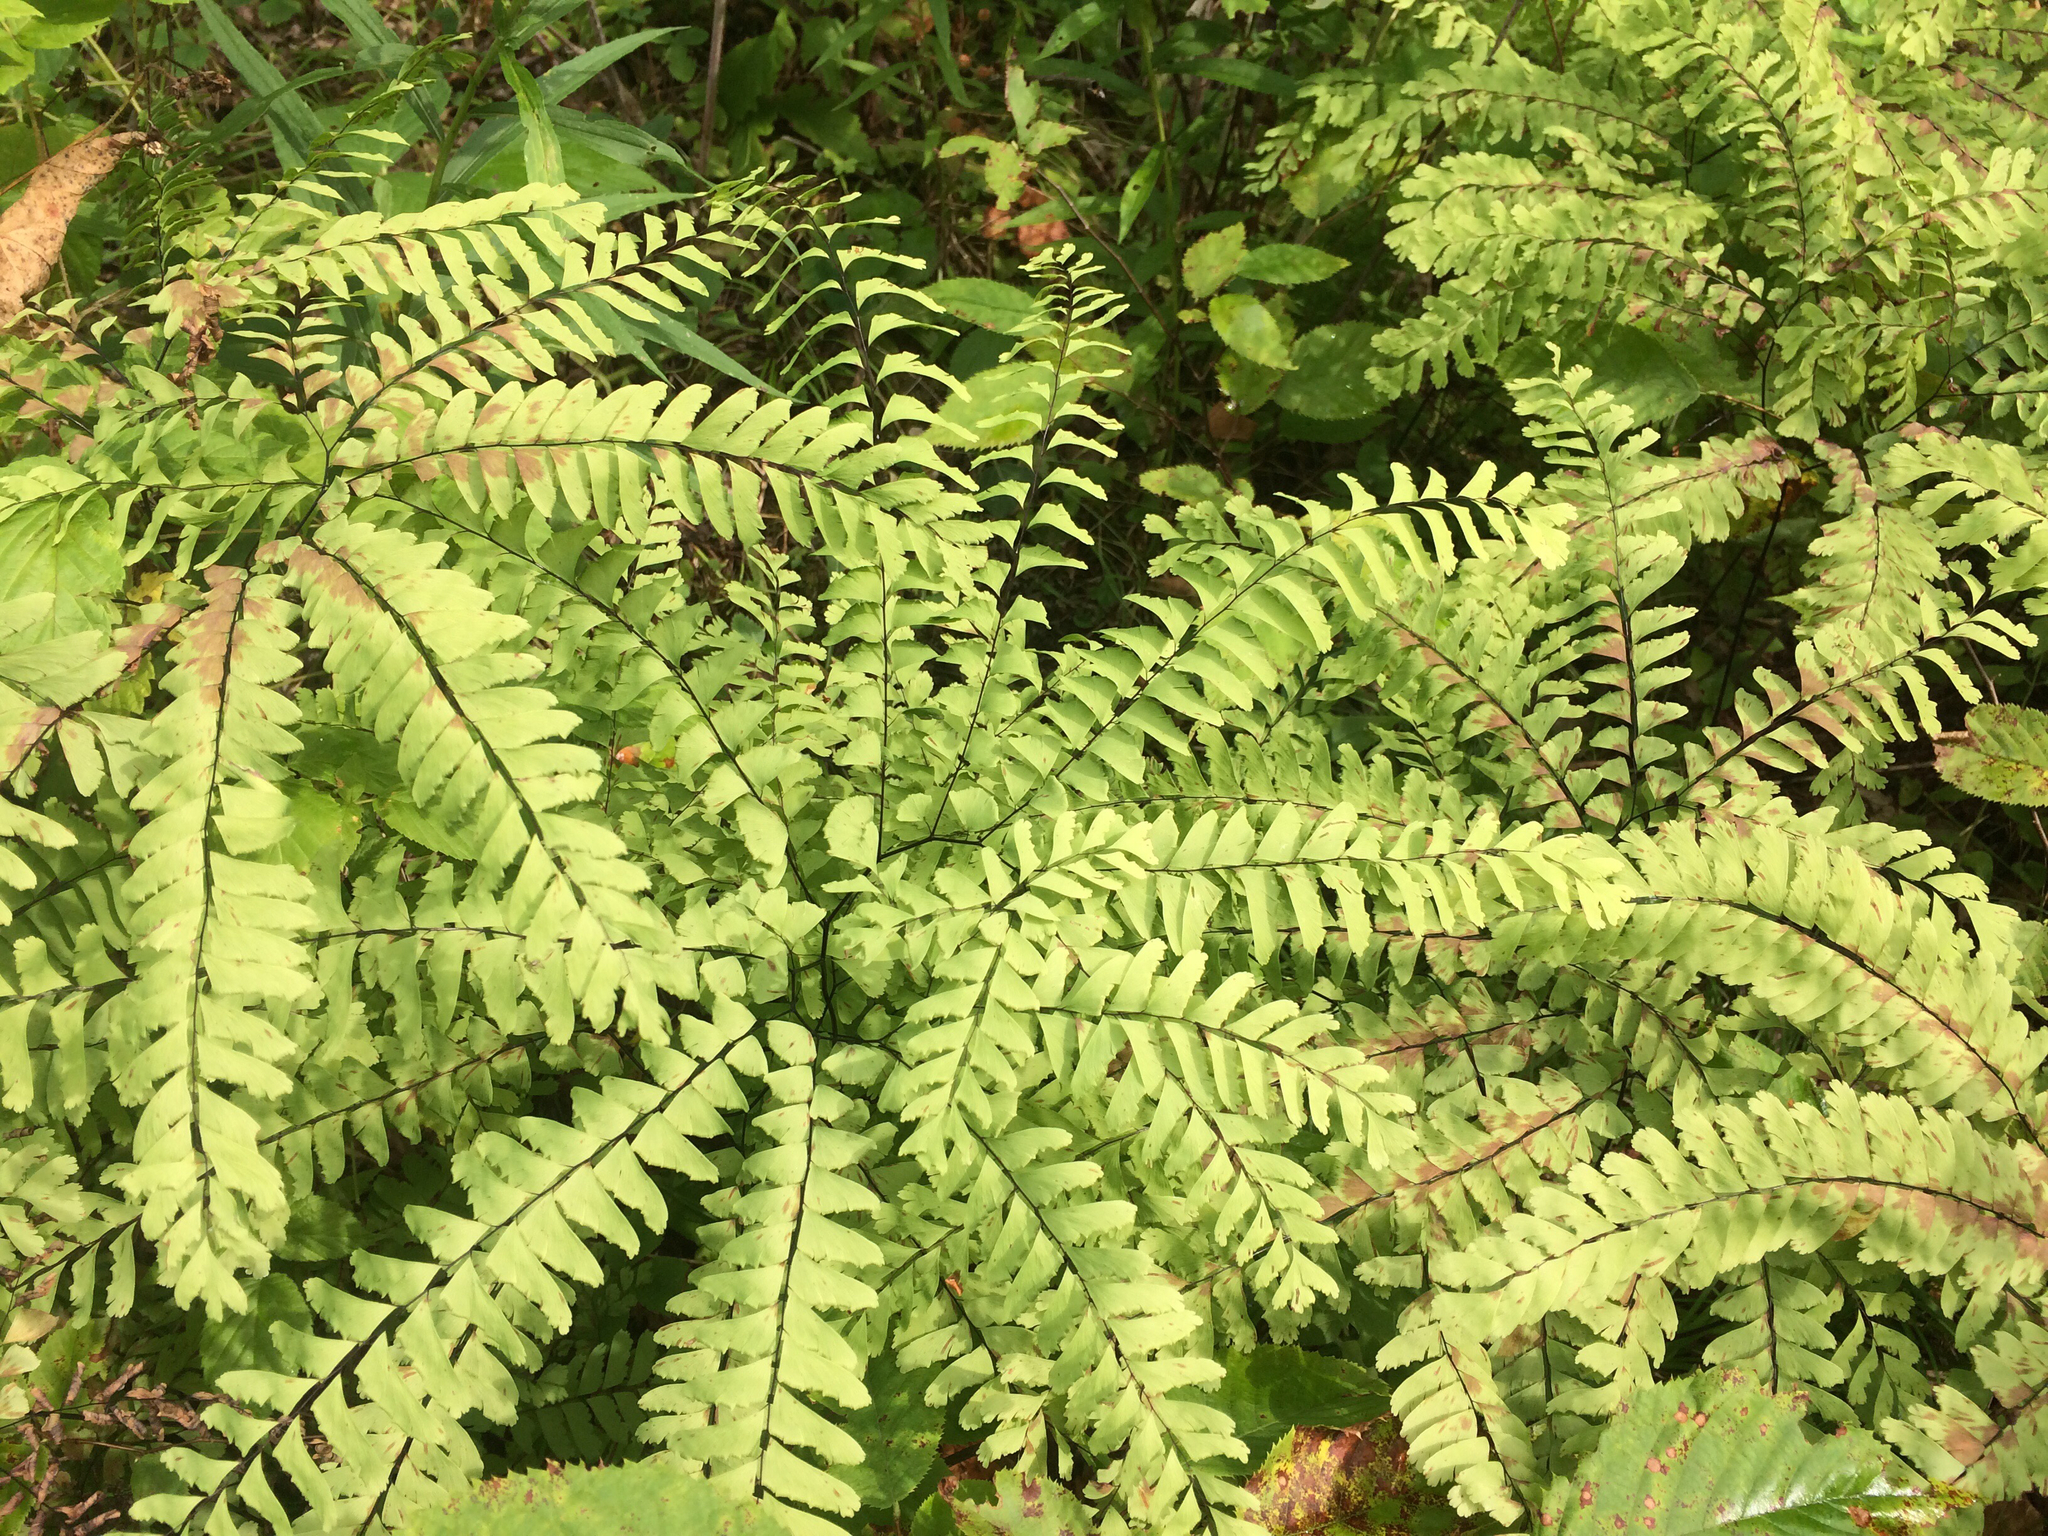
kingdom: Plantae
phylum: Tracheophyta
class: Polypodiopsida
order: Polypodiales
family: Pteridaceae
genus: Adiantum
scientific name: Adiantum pedatum
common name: Five-finger fern
